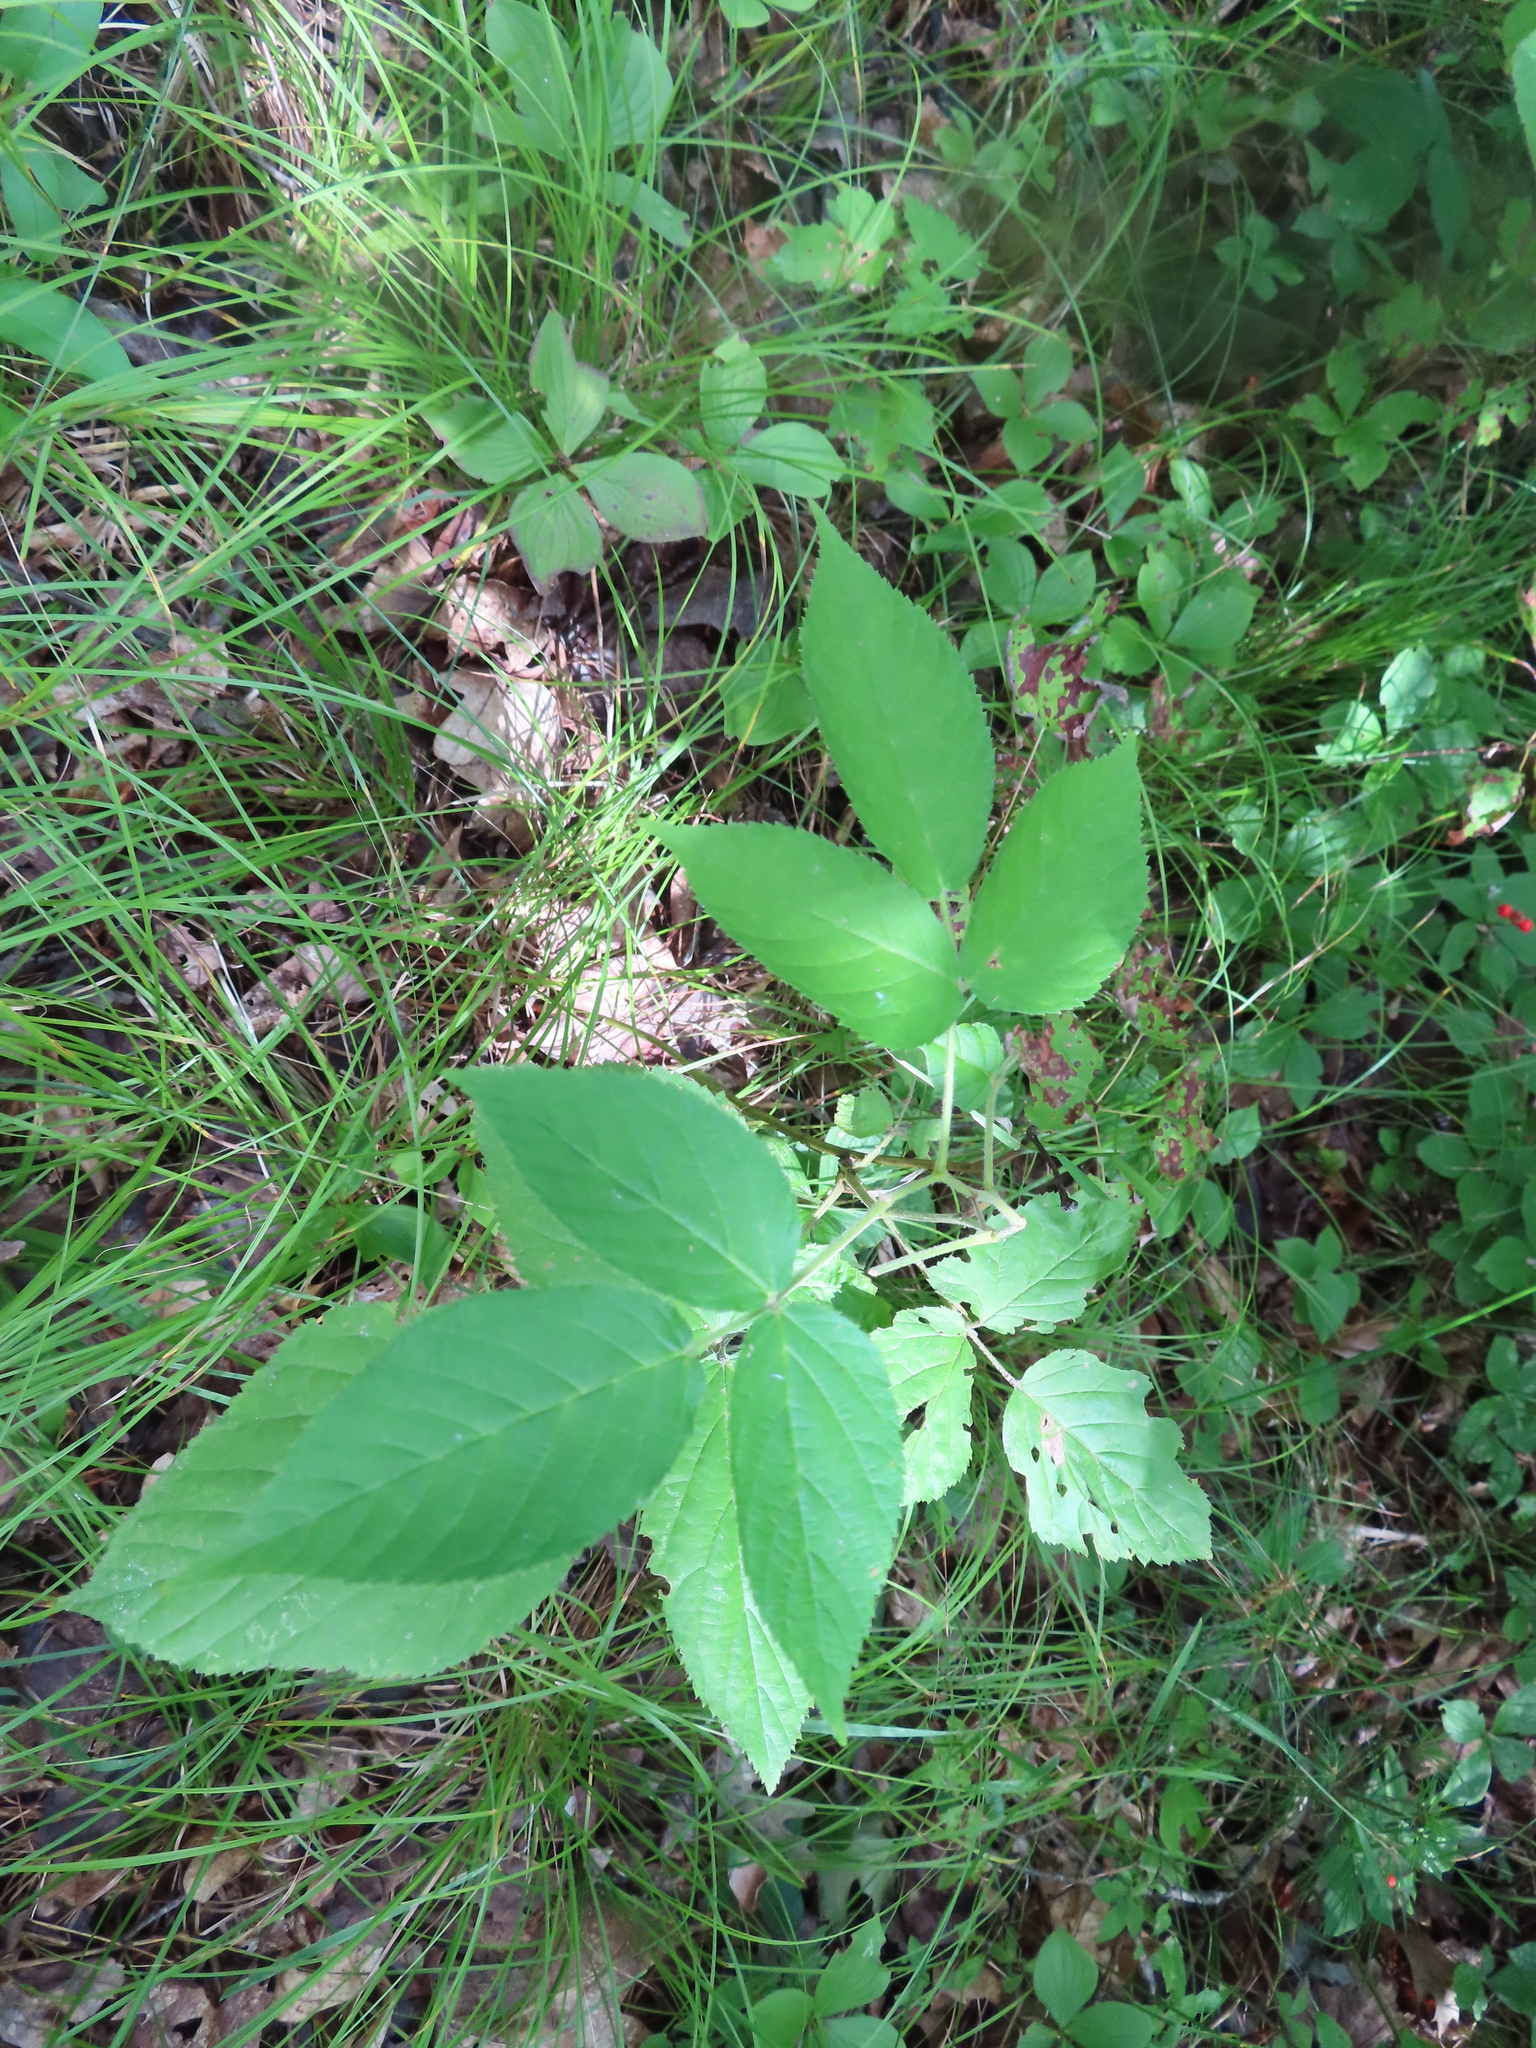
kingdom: Plantae
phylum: Tracheophyta
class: Magnoliopsida
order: Rosales
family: Rosaceae
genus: Rubus
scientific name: Rubus idaeus
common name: Raspberry
